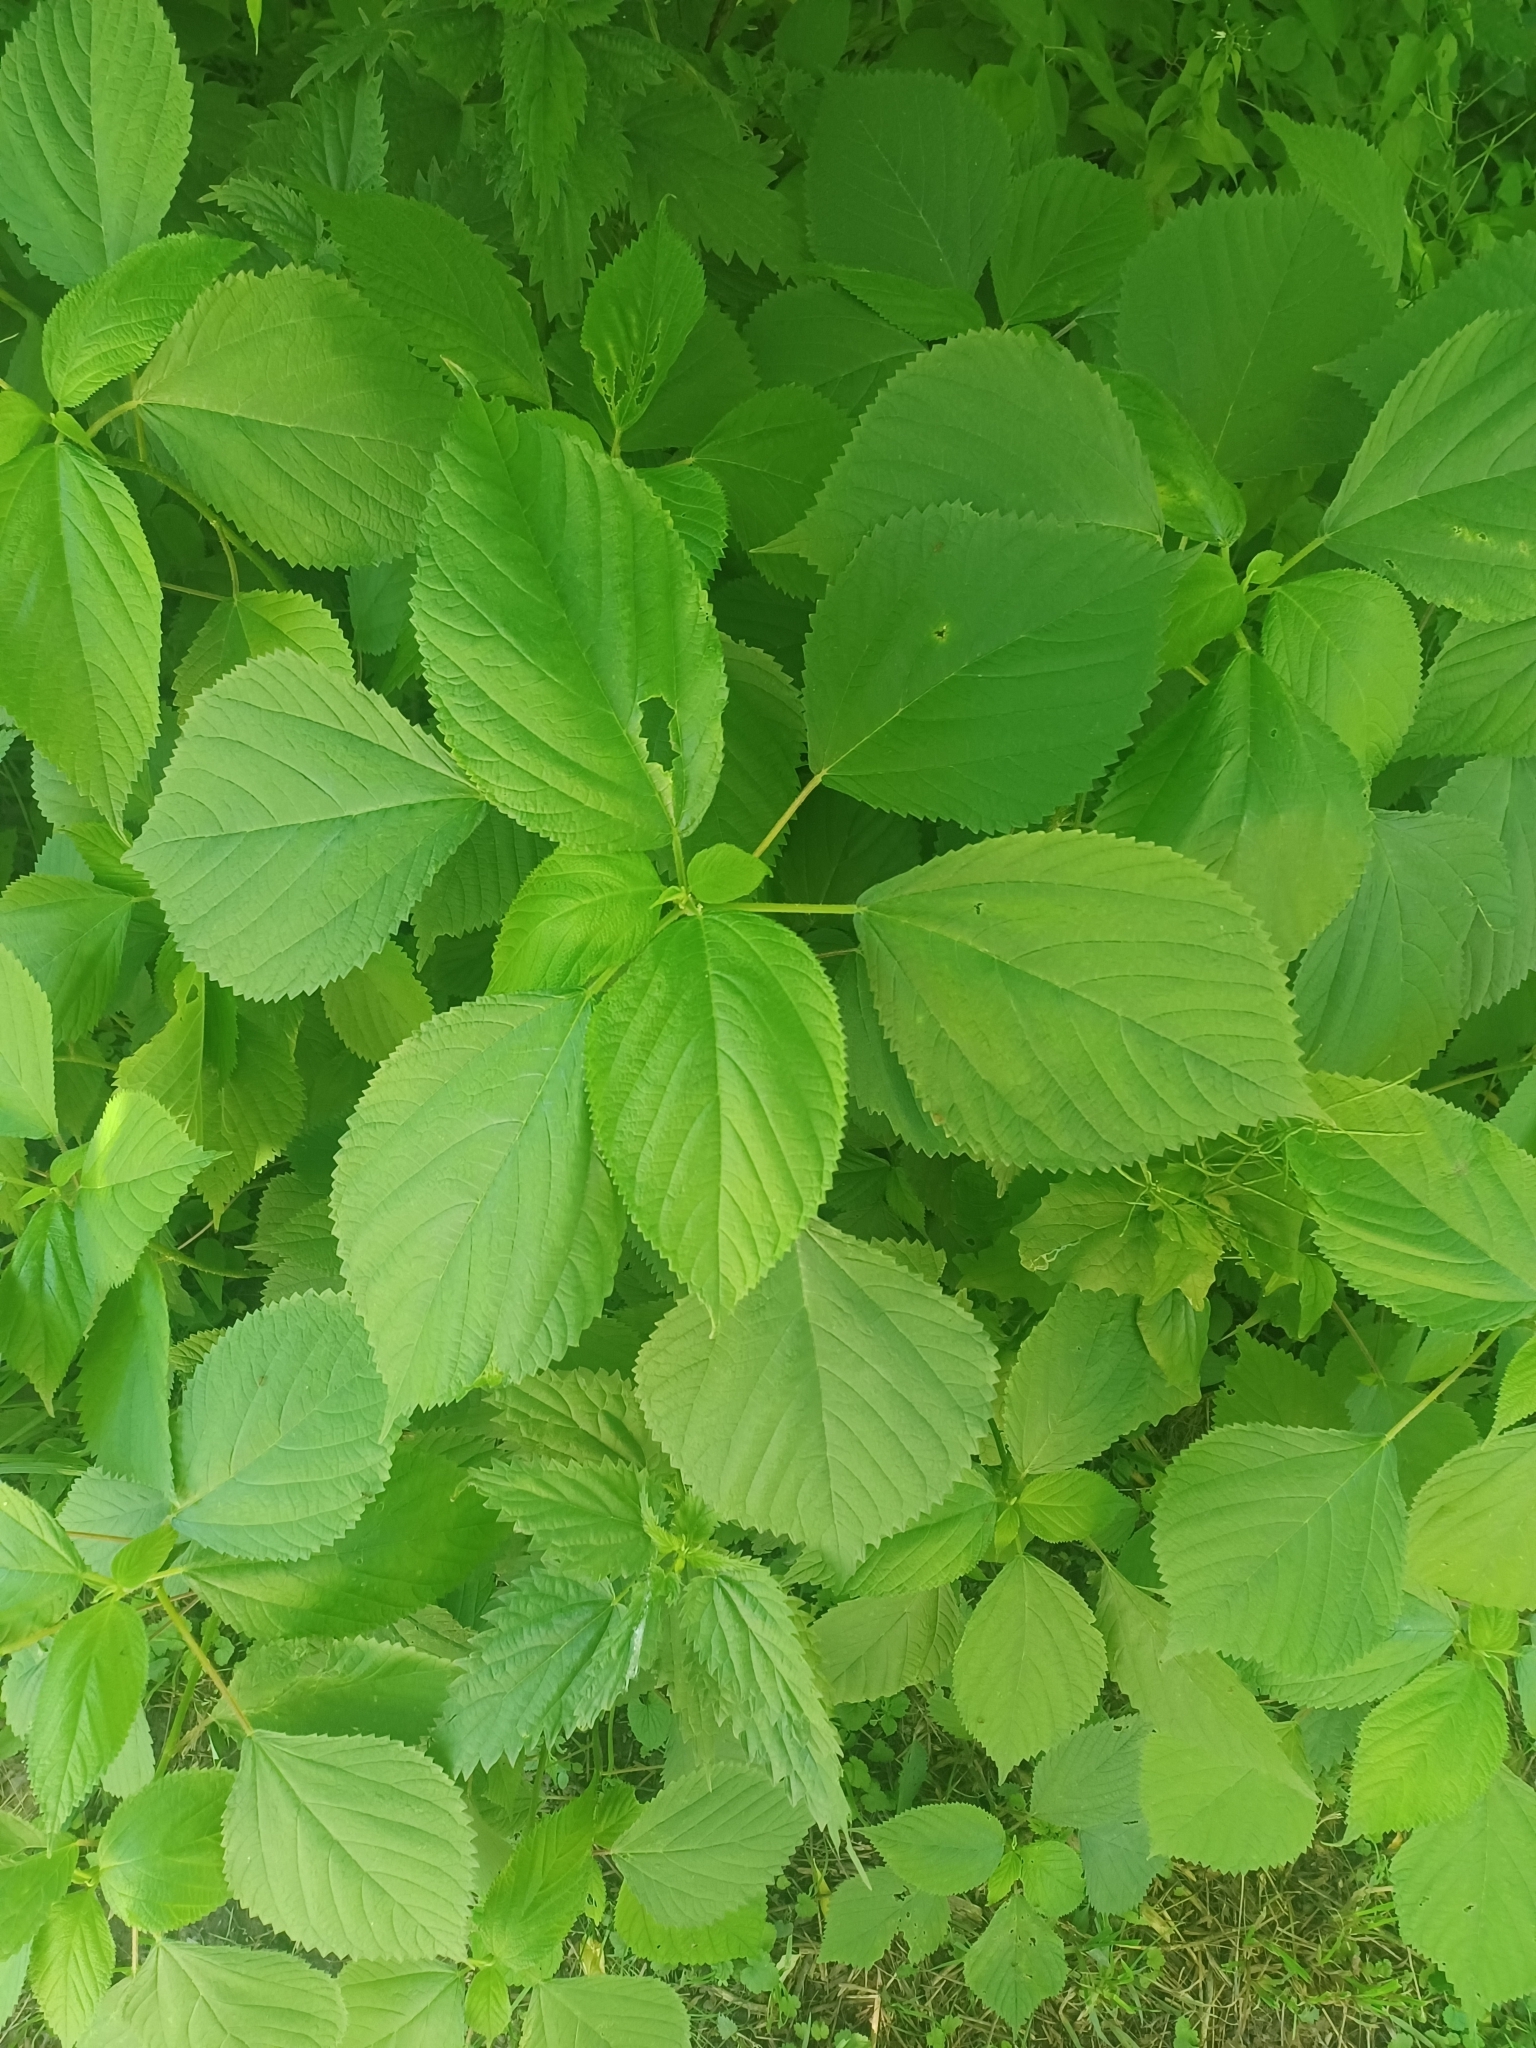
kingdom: Plantae
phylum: Tracheophyta
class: Magnoliopsida
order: Rosales
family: Urticaceae
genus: Laportea
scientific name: Laportea canadensis
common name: Canada nettle
